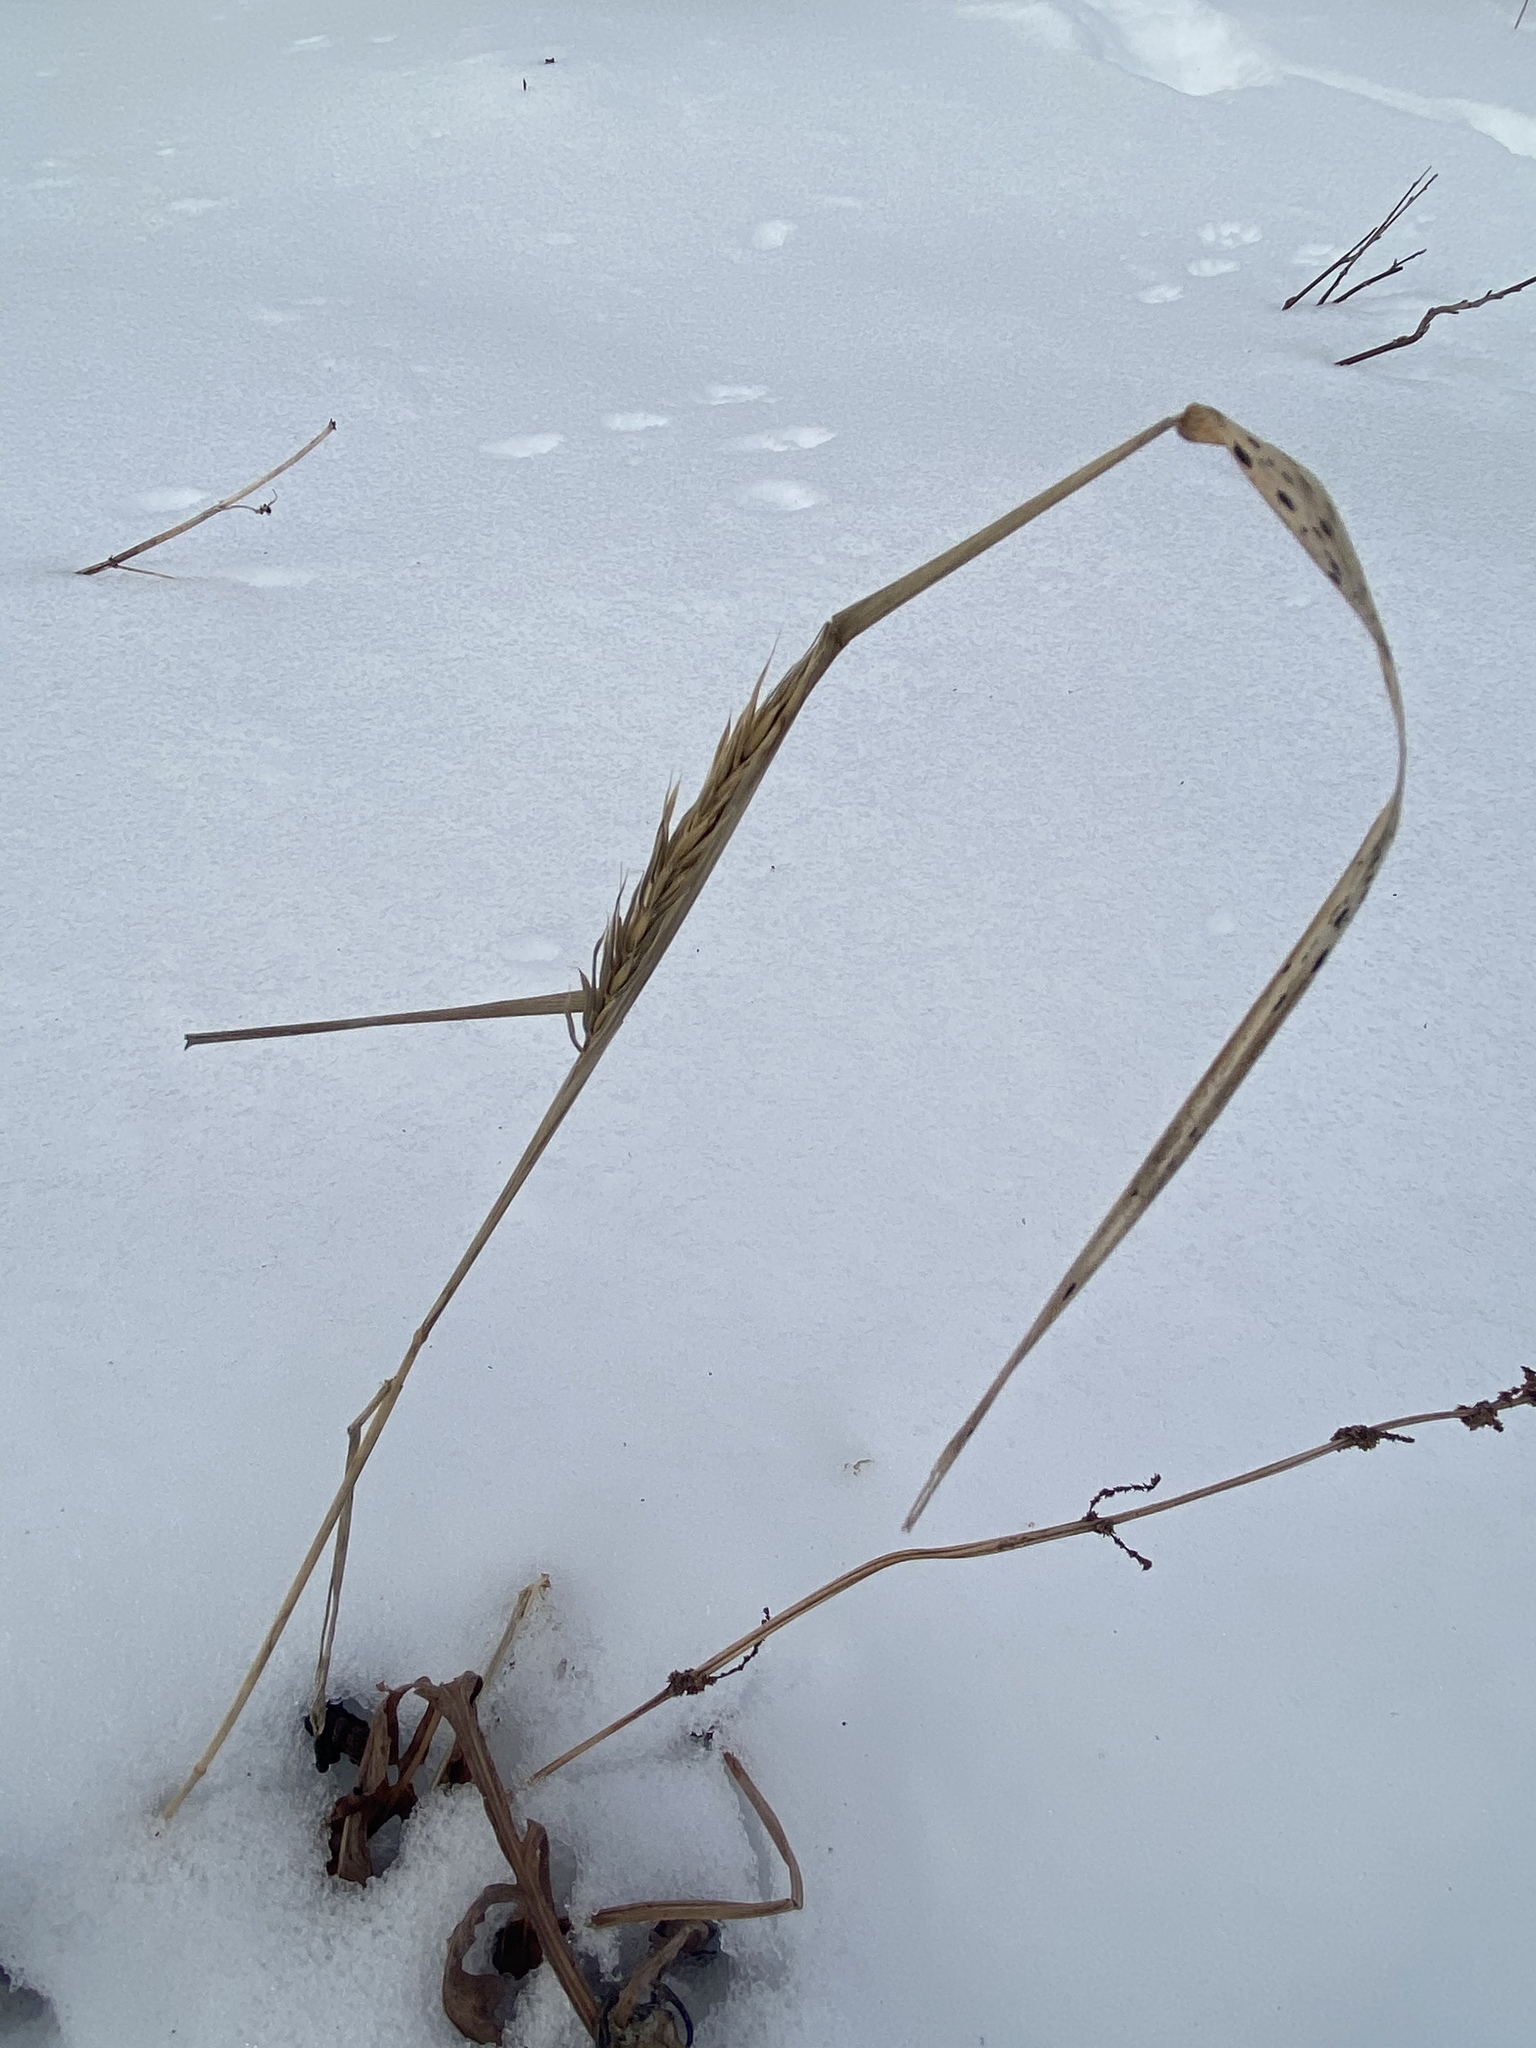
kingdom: Plantae
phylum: Tracheophyta
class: Liliopsida
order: Poales
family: Poaceae
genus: Elymus
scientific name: Elymus virginicus
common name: Common eastern wildrye
